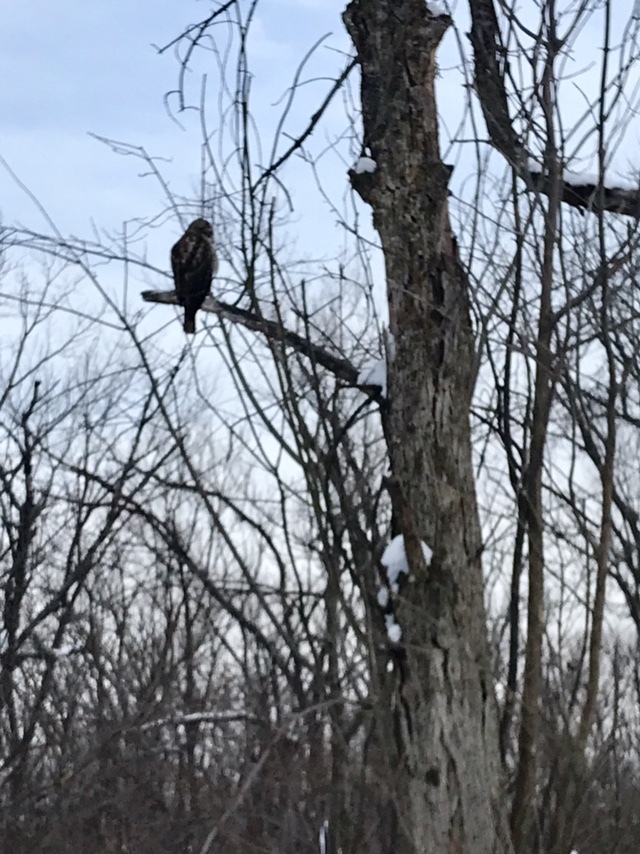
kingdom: Animalia
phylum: Chordata
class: Aves
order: Accipitriformes
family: Accipitridae
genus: Buteo
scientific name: Buteo jamaicensis
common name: Red-tailed hawk
